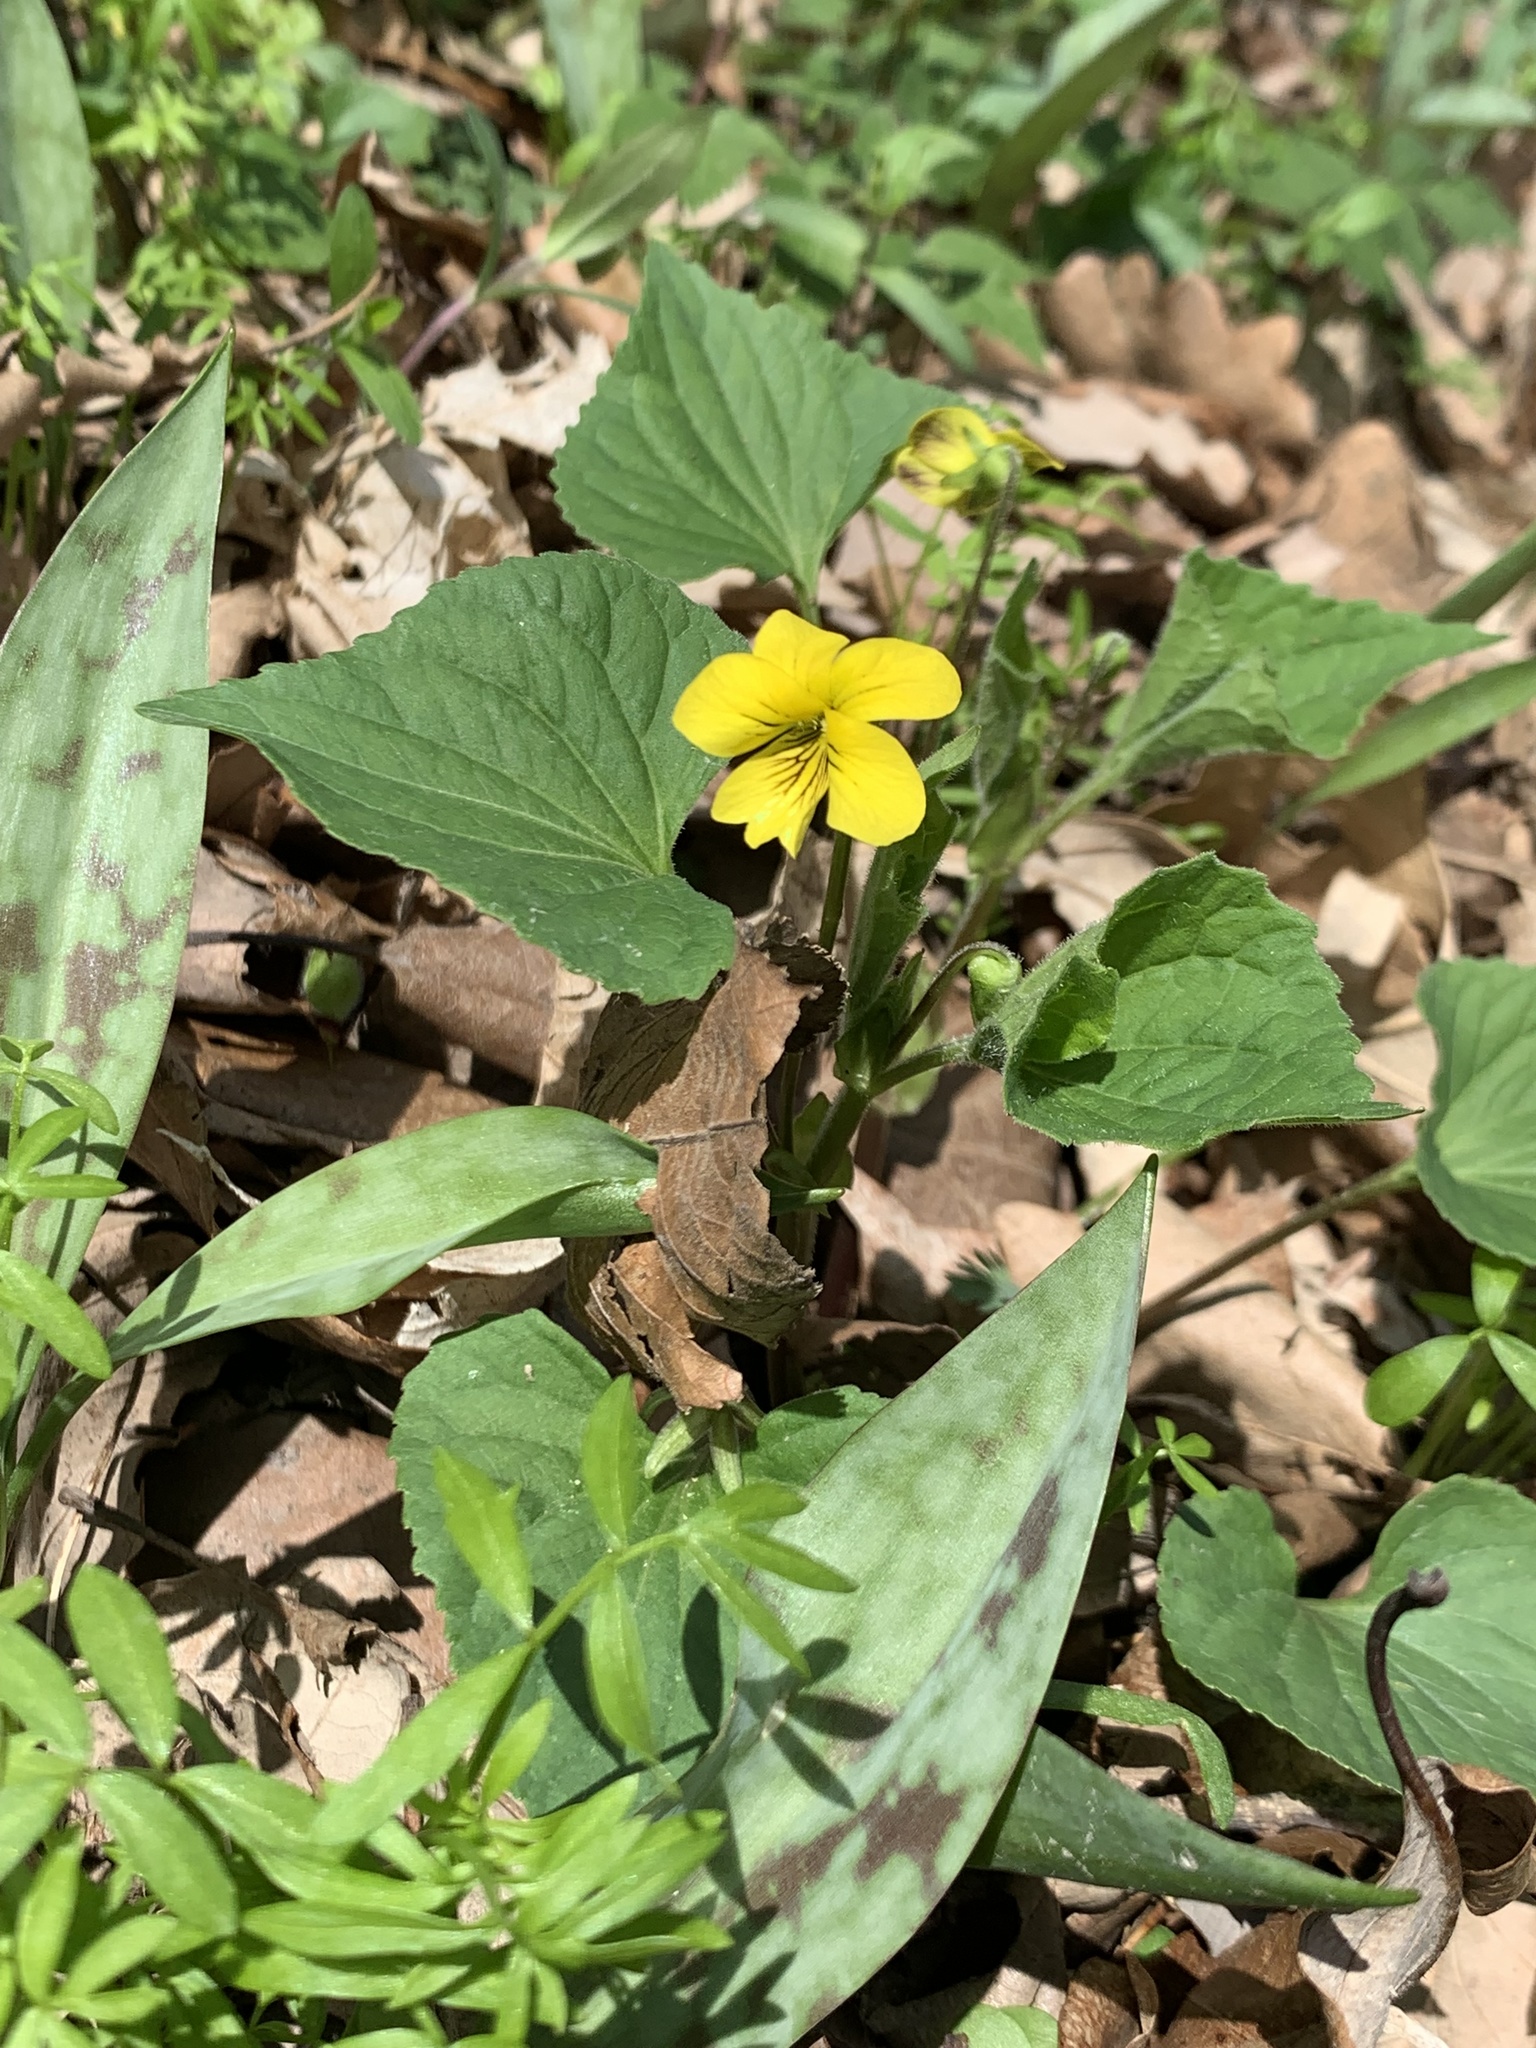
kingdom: Plantae
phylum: Tracheophyta
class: Magnoliopsida
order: Malpighiales
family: Violaceae
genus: Viola
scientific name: Viola eriocarpa
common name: Smooth yellow violet
